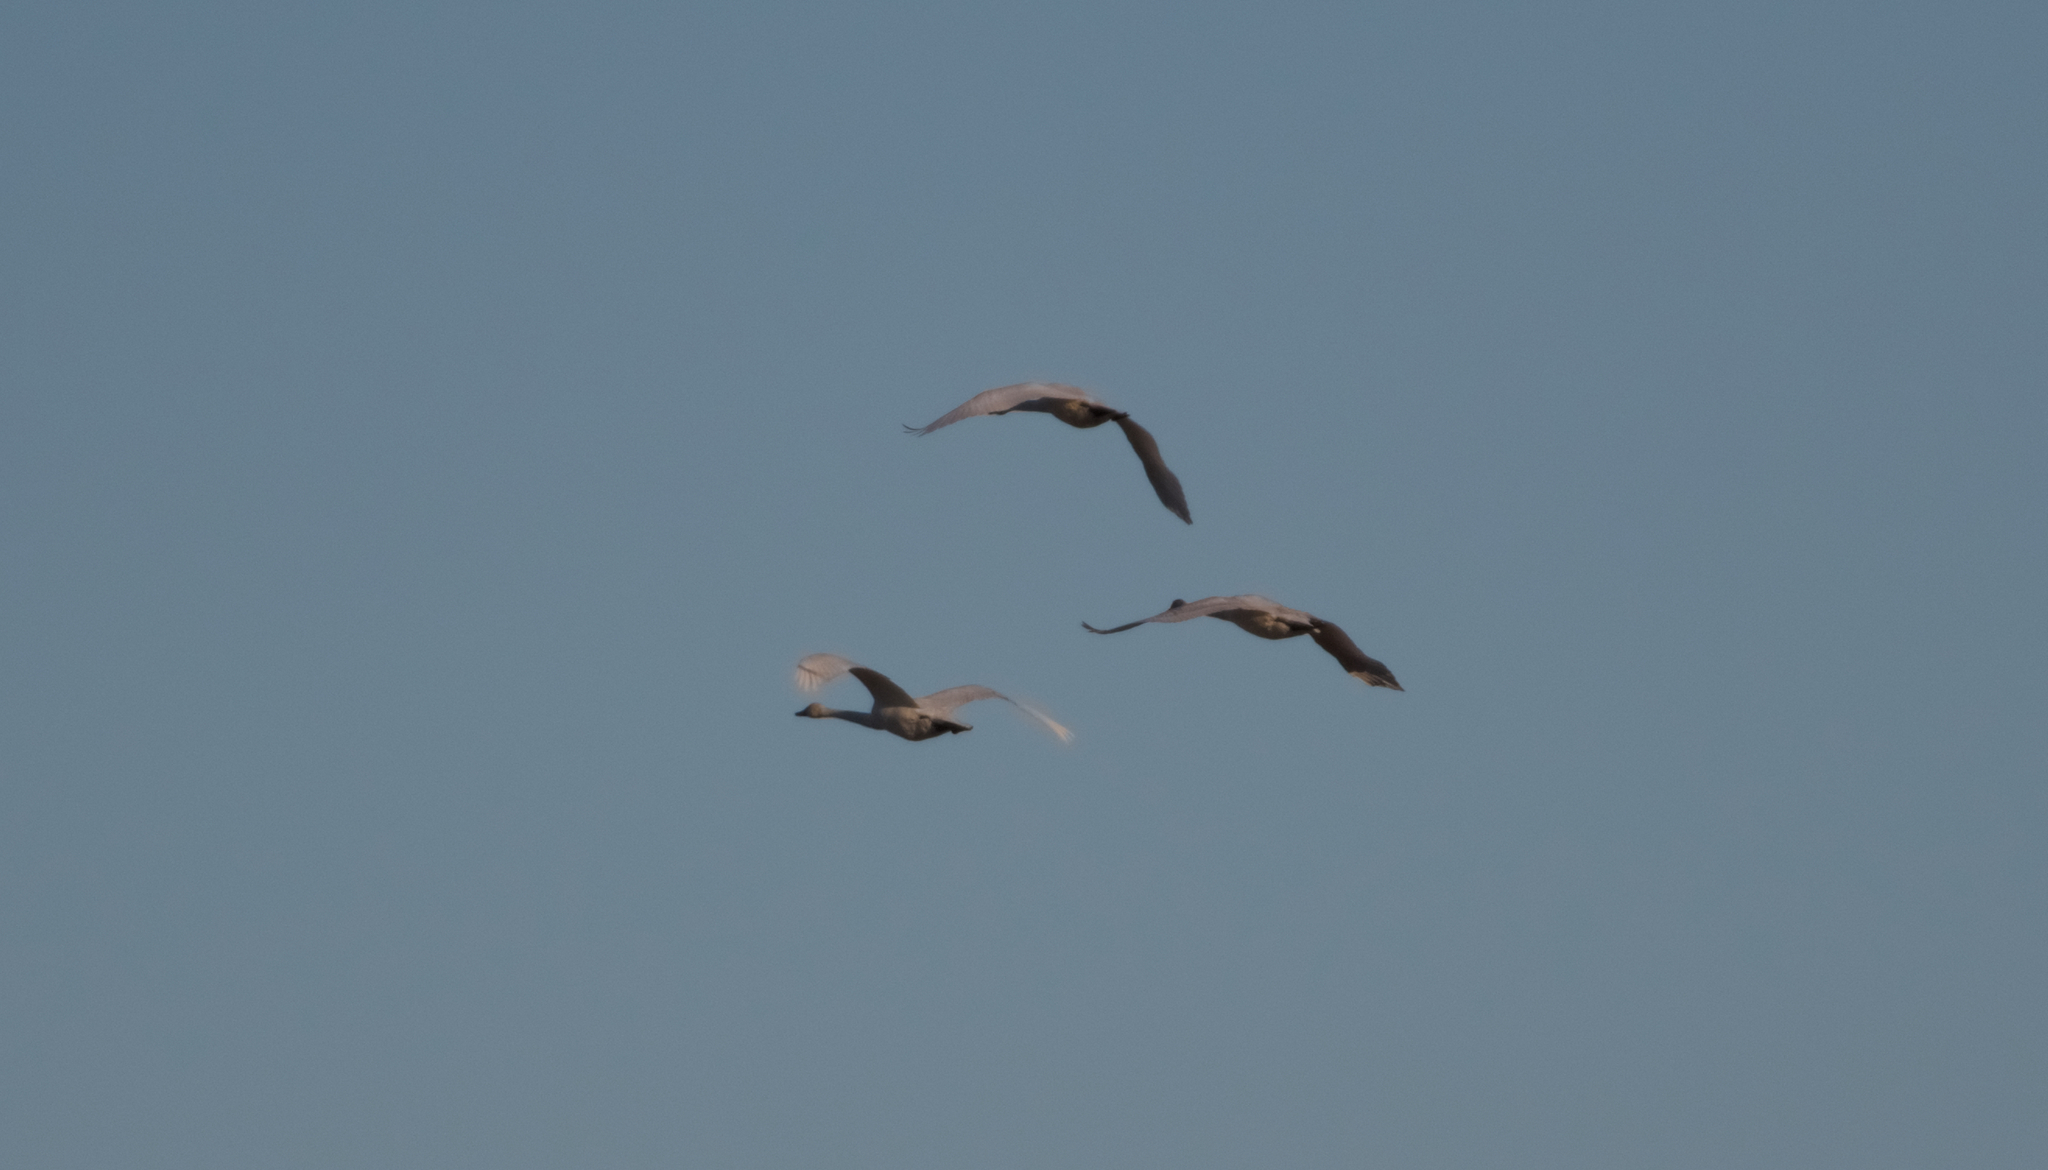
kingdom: Animalia
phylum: Chordata
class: Aves
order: Anseriformes
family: Anatidae
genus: Cygnus
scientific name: Cygnus columbianus
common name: Tundra swan
